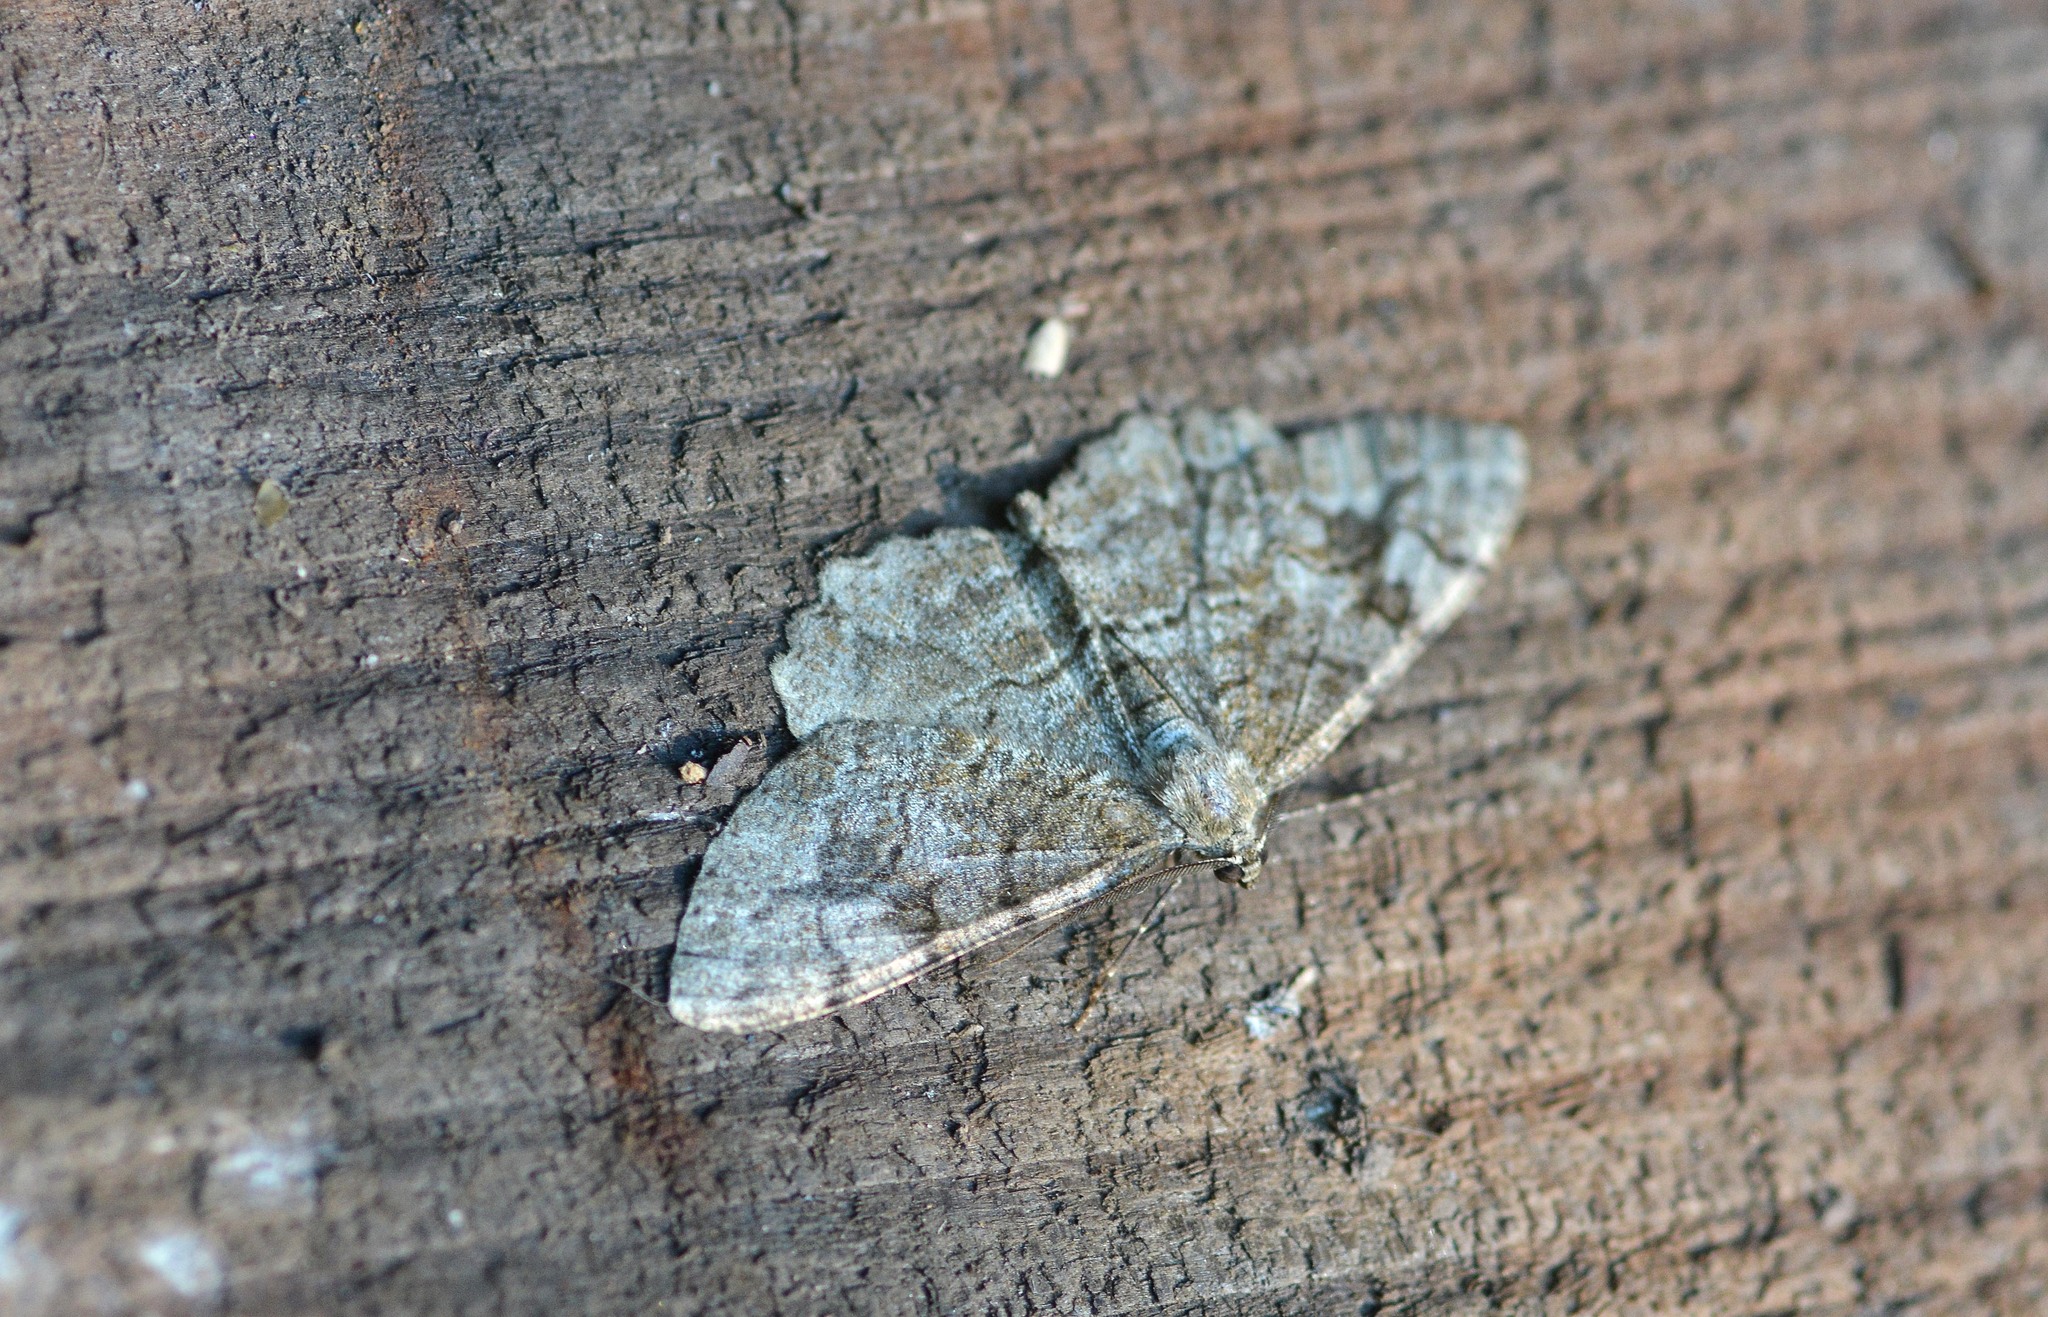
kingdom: Animalia
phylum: Arthropoda
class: Insecta
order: Lepidoptera
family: Geometridae
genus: Alcis
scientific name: Alcis repandata
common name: Mottled beauty
